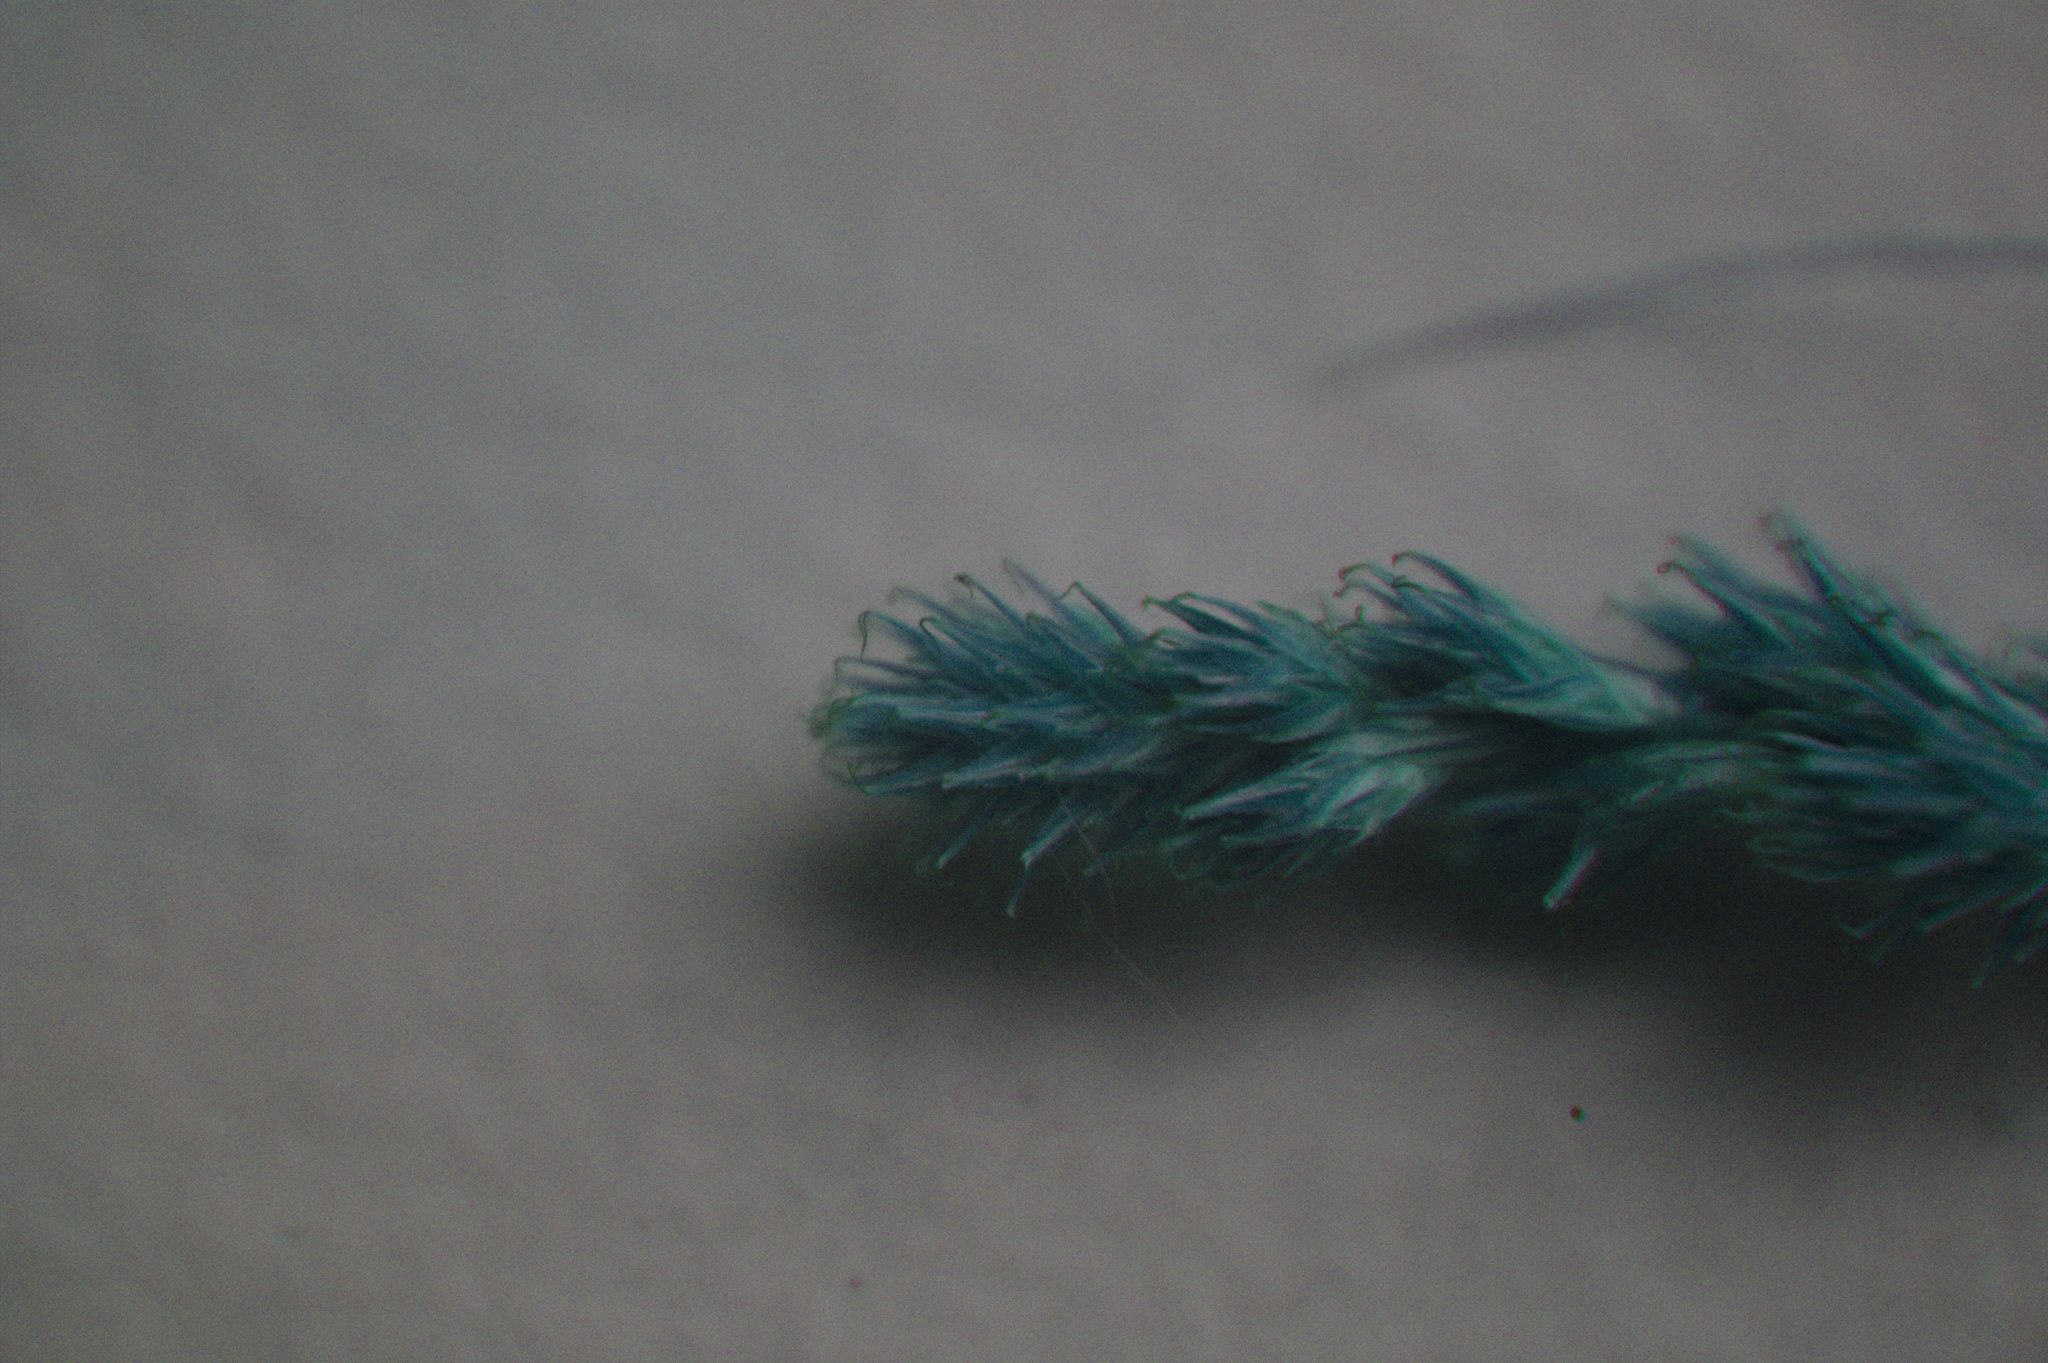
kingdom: Plantae
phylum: Tracheophyta
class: Liliopsida
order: Poales
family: Cyperaceae
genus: Carex
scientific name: Carex projecta
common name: Loose-headed oval sedge
